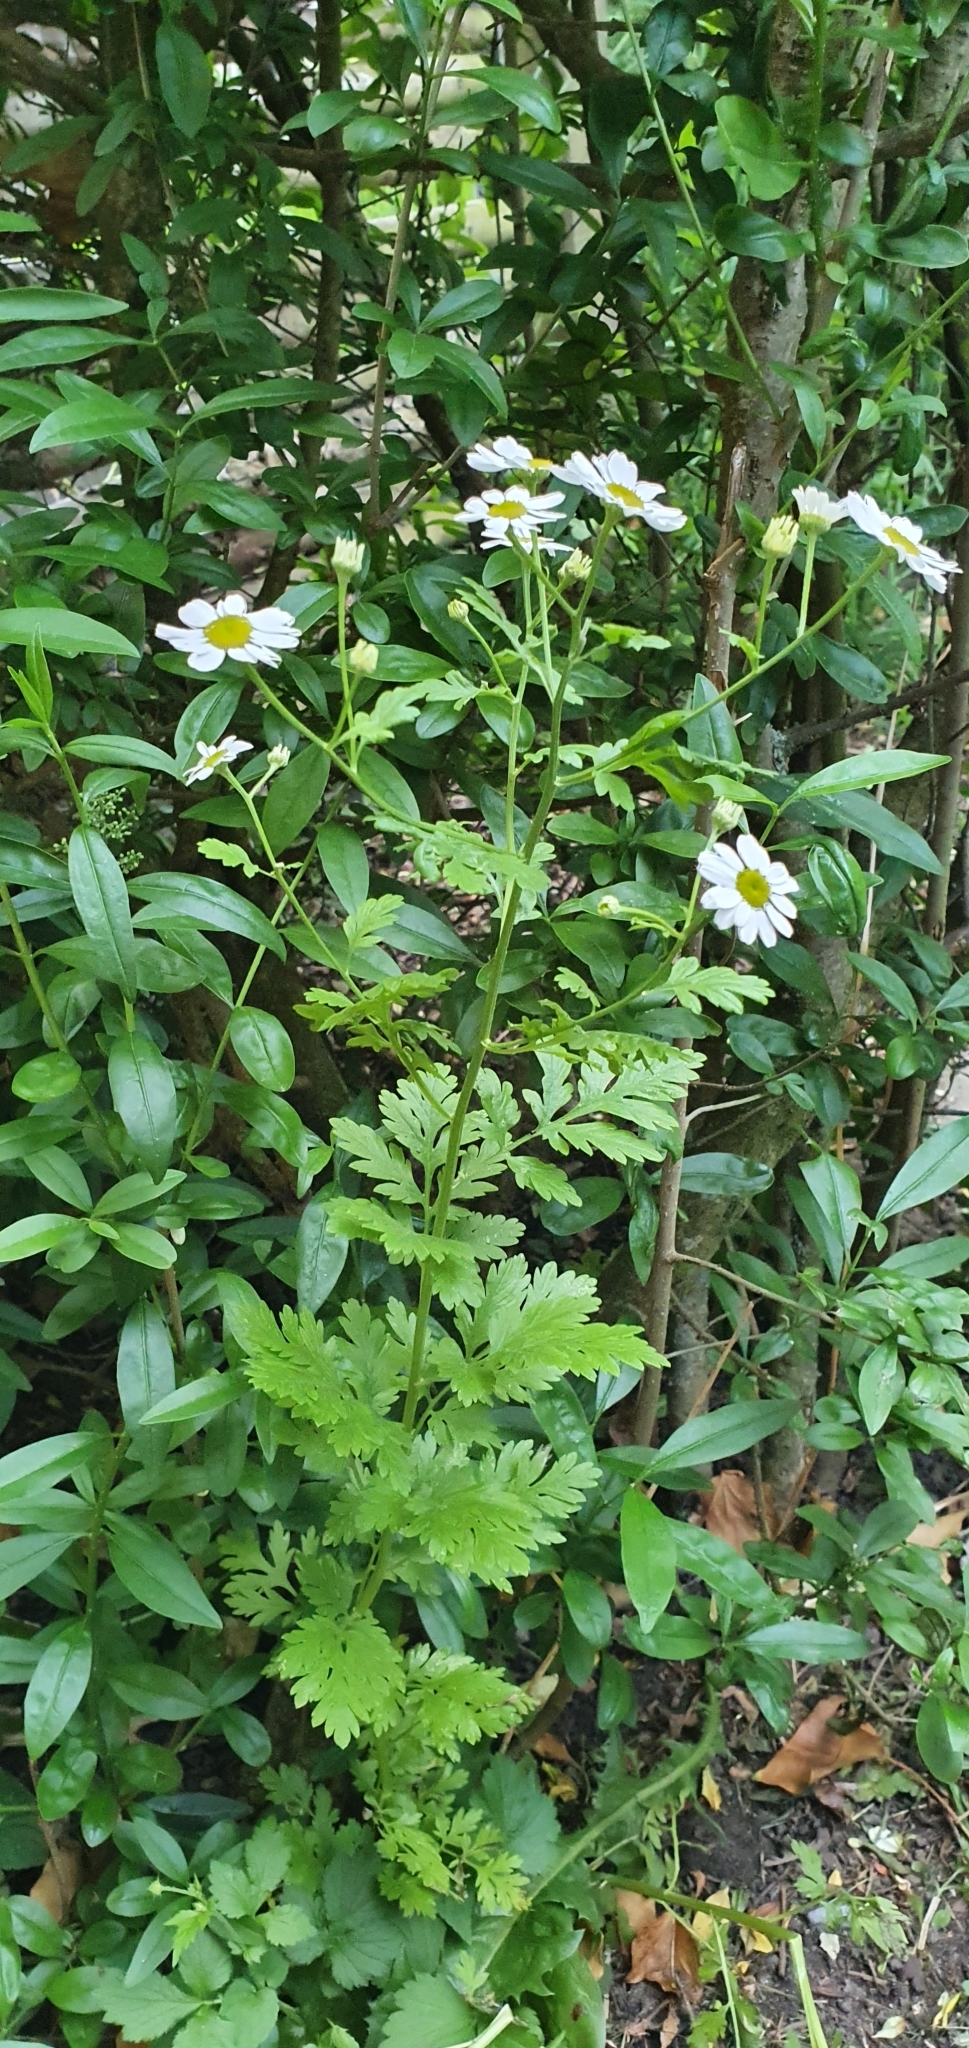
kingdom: Plantae
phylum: Tracheophyta
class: Magnoliopsida
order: Asterales
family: Asteraceae
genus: Tanacetum
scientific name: Tanacetum parthenium
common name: Feverfew
